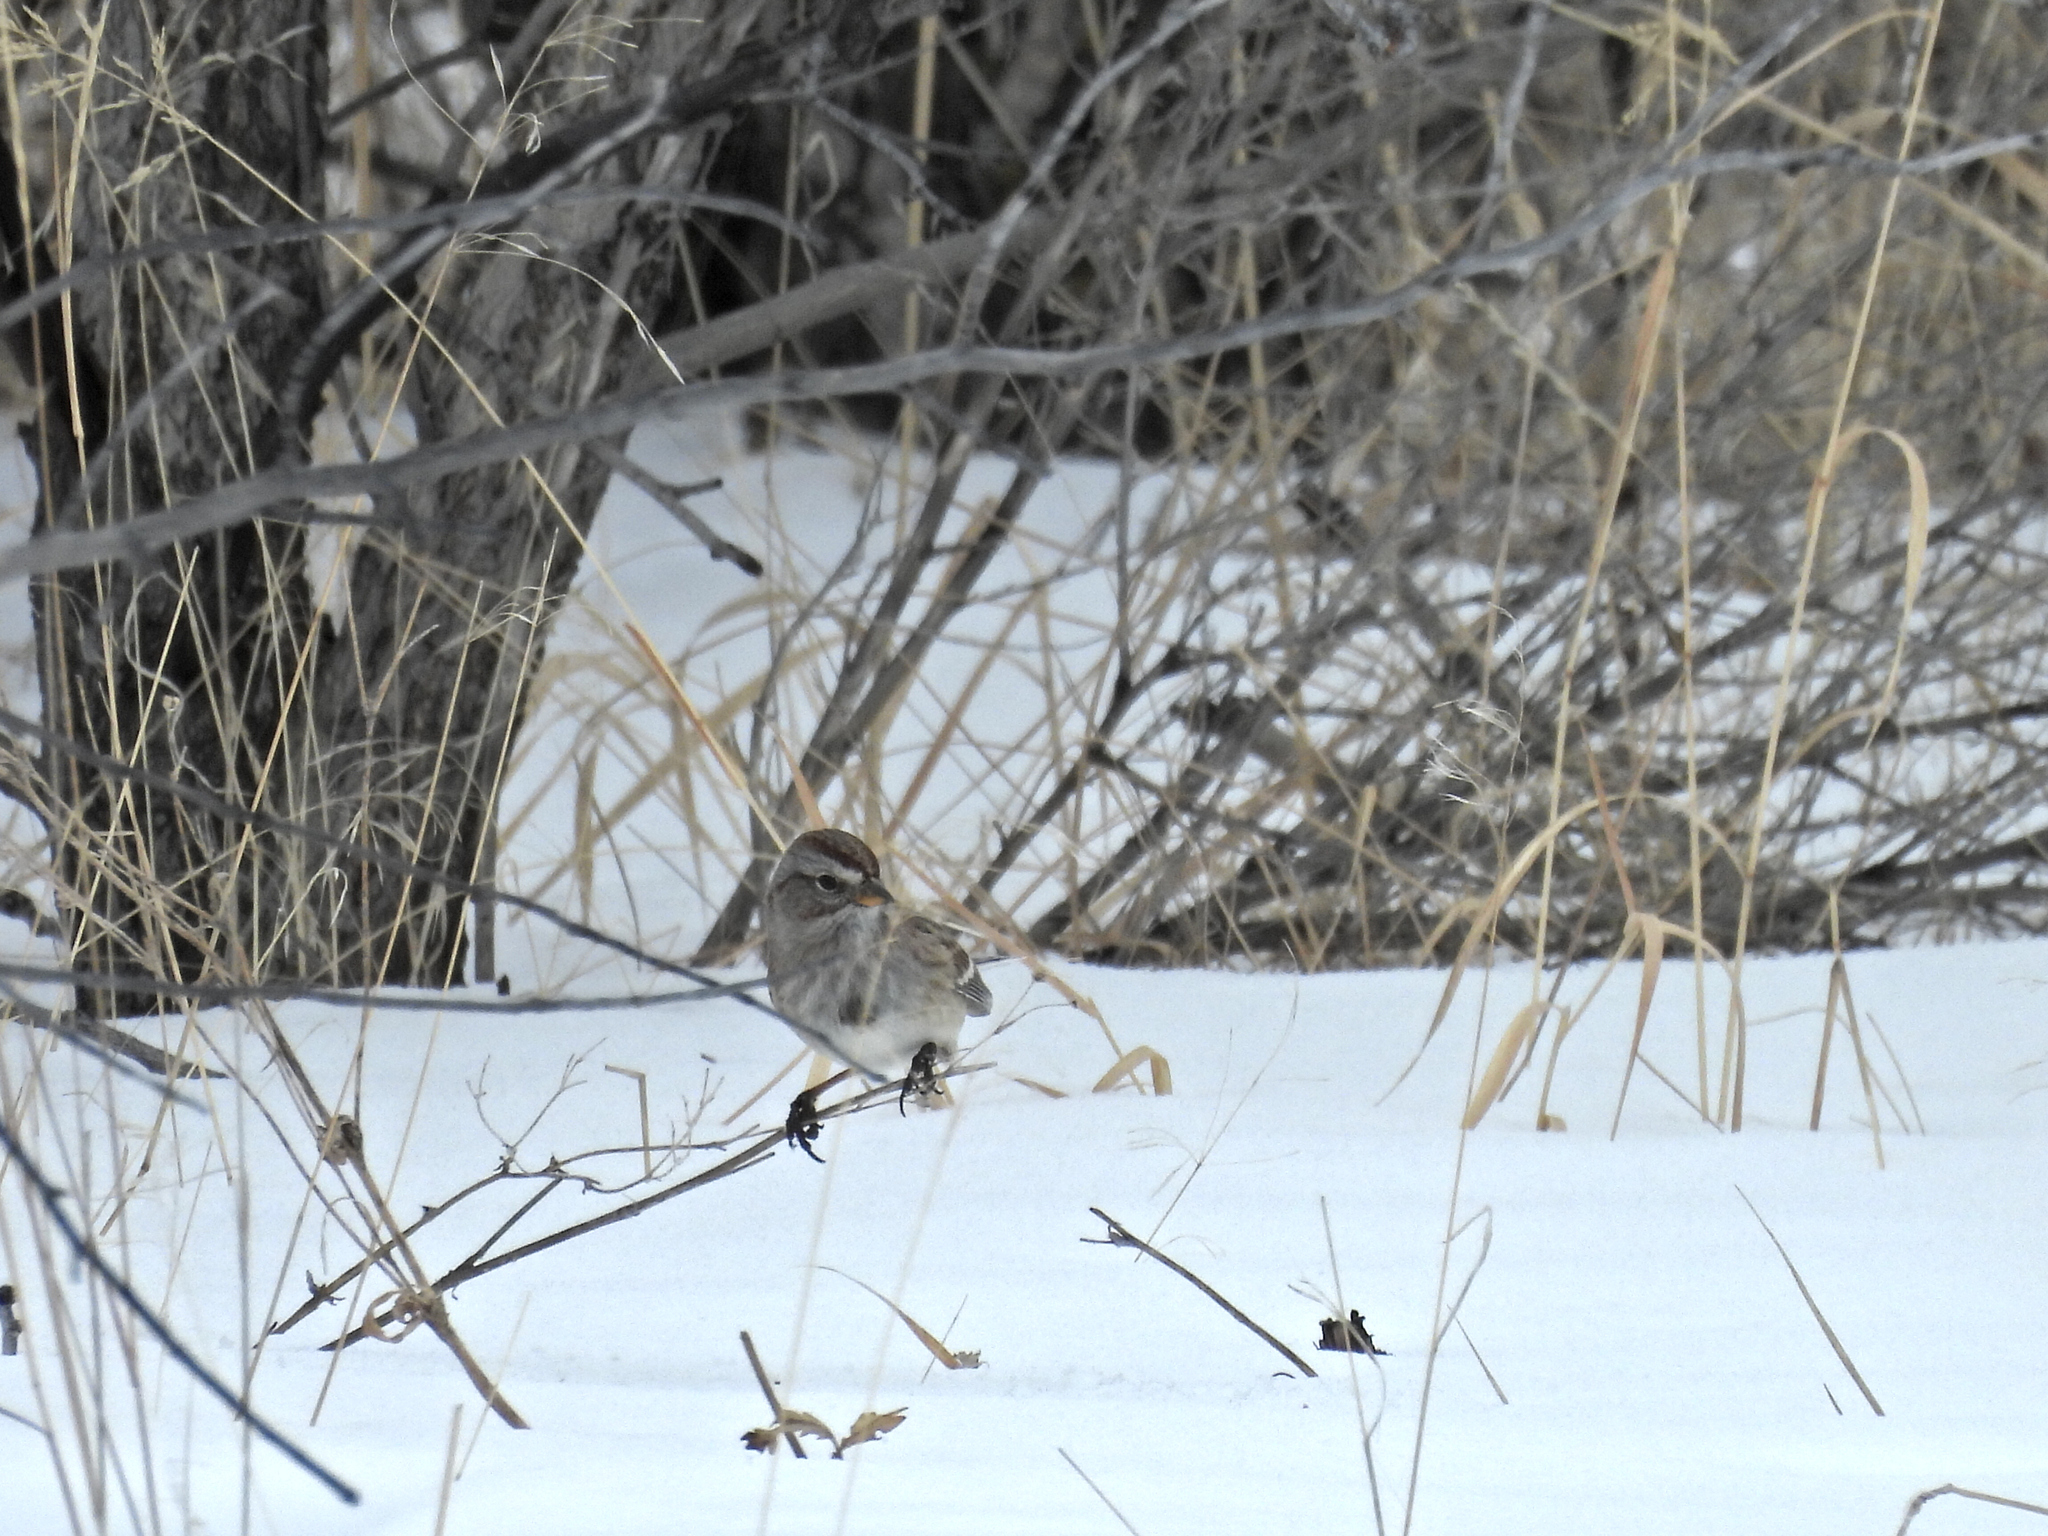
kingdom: Animalia
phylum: Chordata
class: Aves
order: Passeriformes
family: Passerellidae
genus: Spizelloides
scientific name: Spizelloides arborea
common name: American tree sparrow
